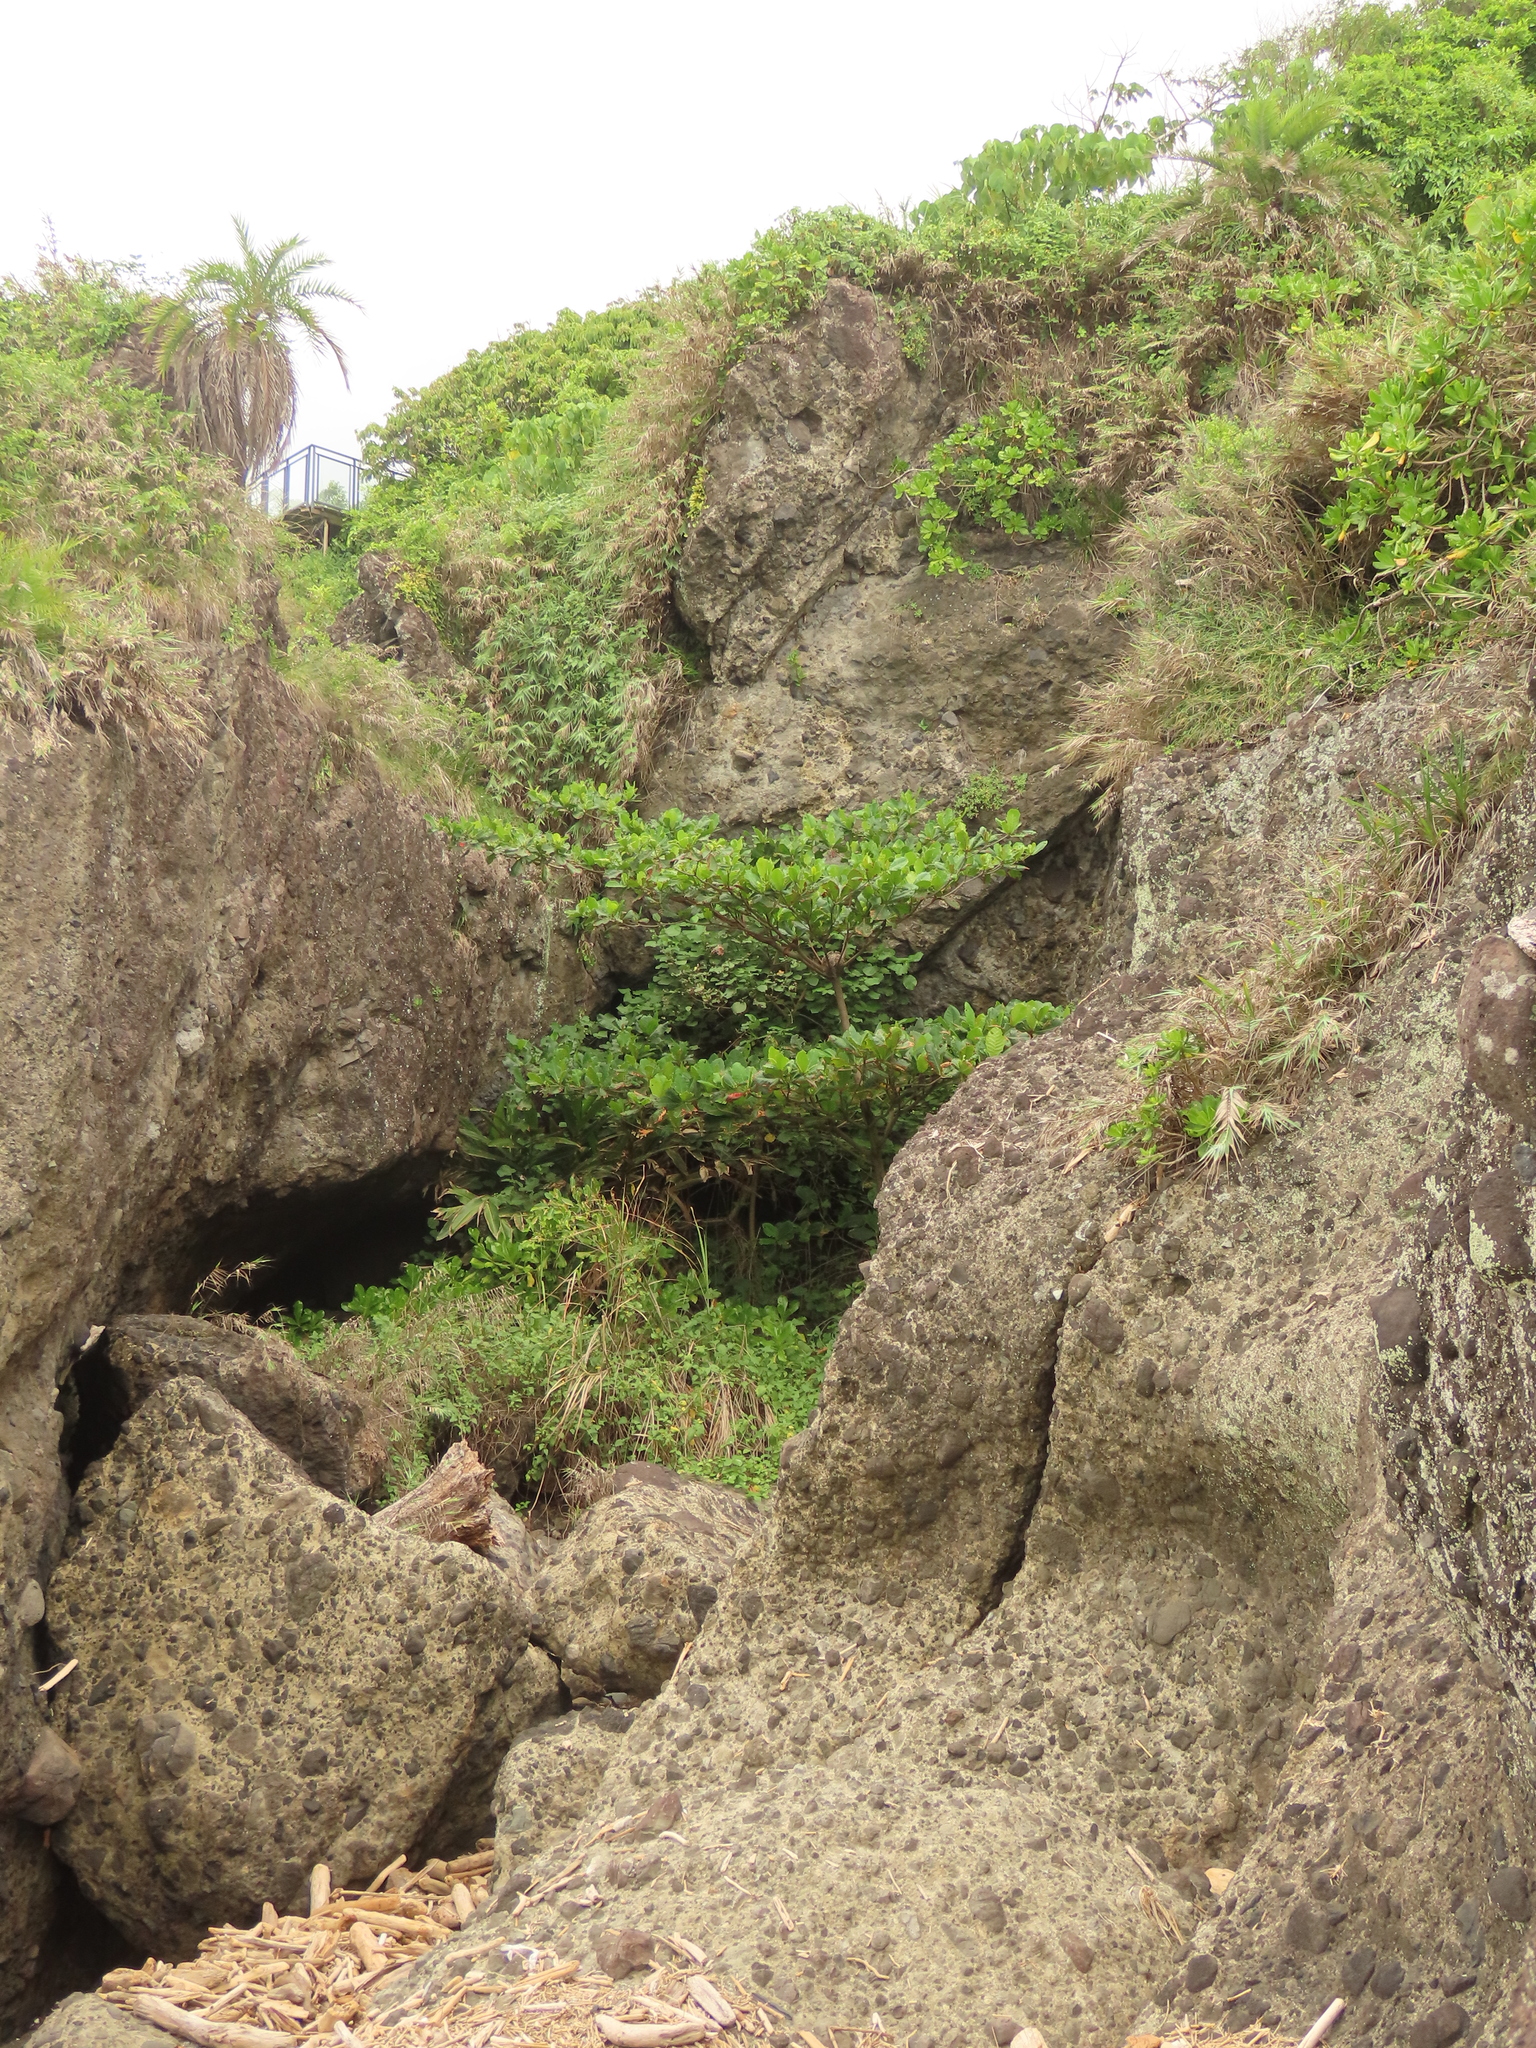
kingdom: Plantae
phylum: Tracheophyta
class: Magnoliopsida
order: Myrtales
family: Combretaceae
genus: Terminalia
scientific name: Terminalia catappa
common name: Tropical almond
